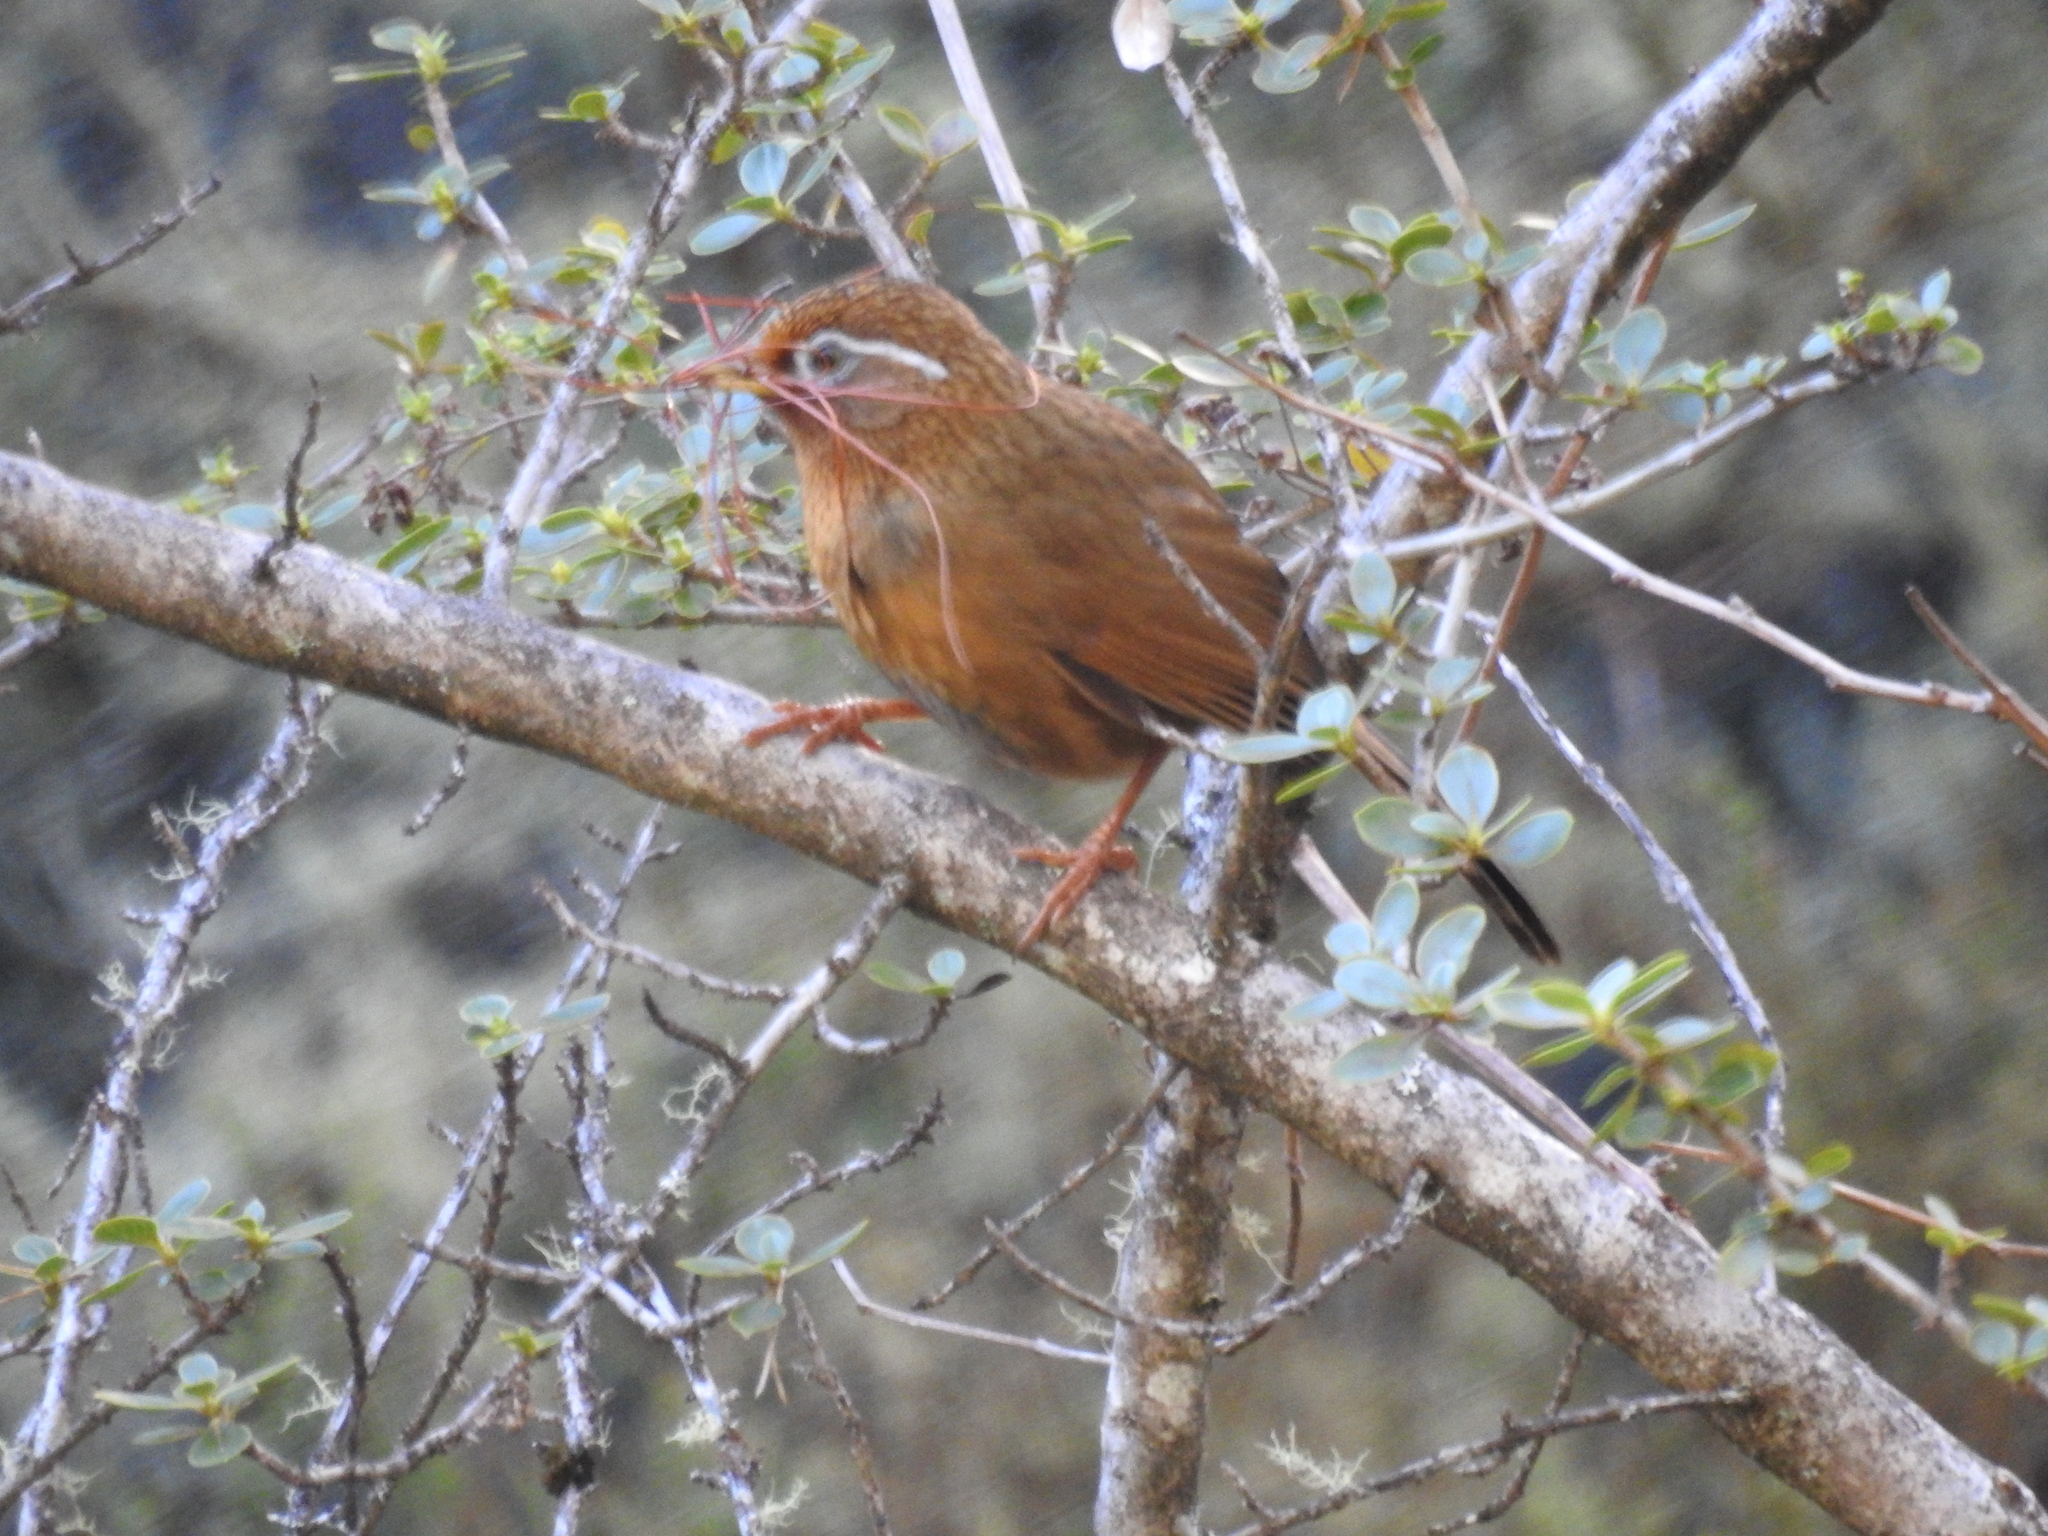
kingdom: Animalia
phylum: Chordata
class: Aves
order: Passeriformes
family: Leiothrichidae
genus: Garrulax
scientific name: Garrulax canorus
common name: Chinese hwamei
